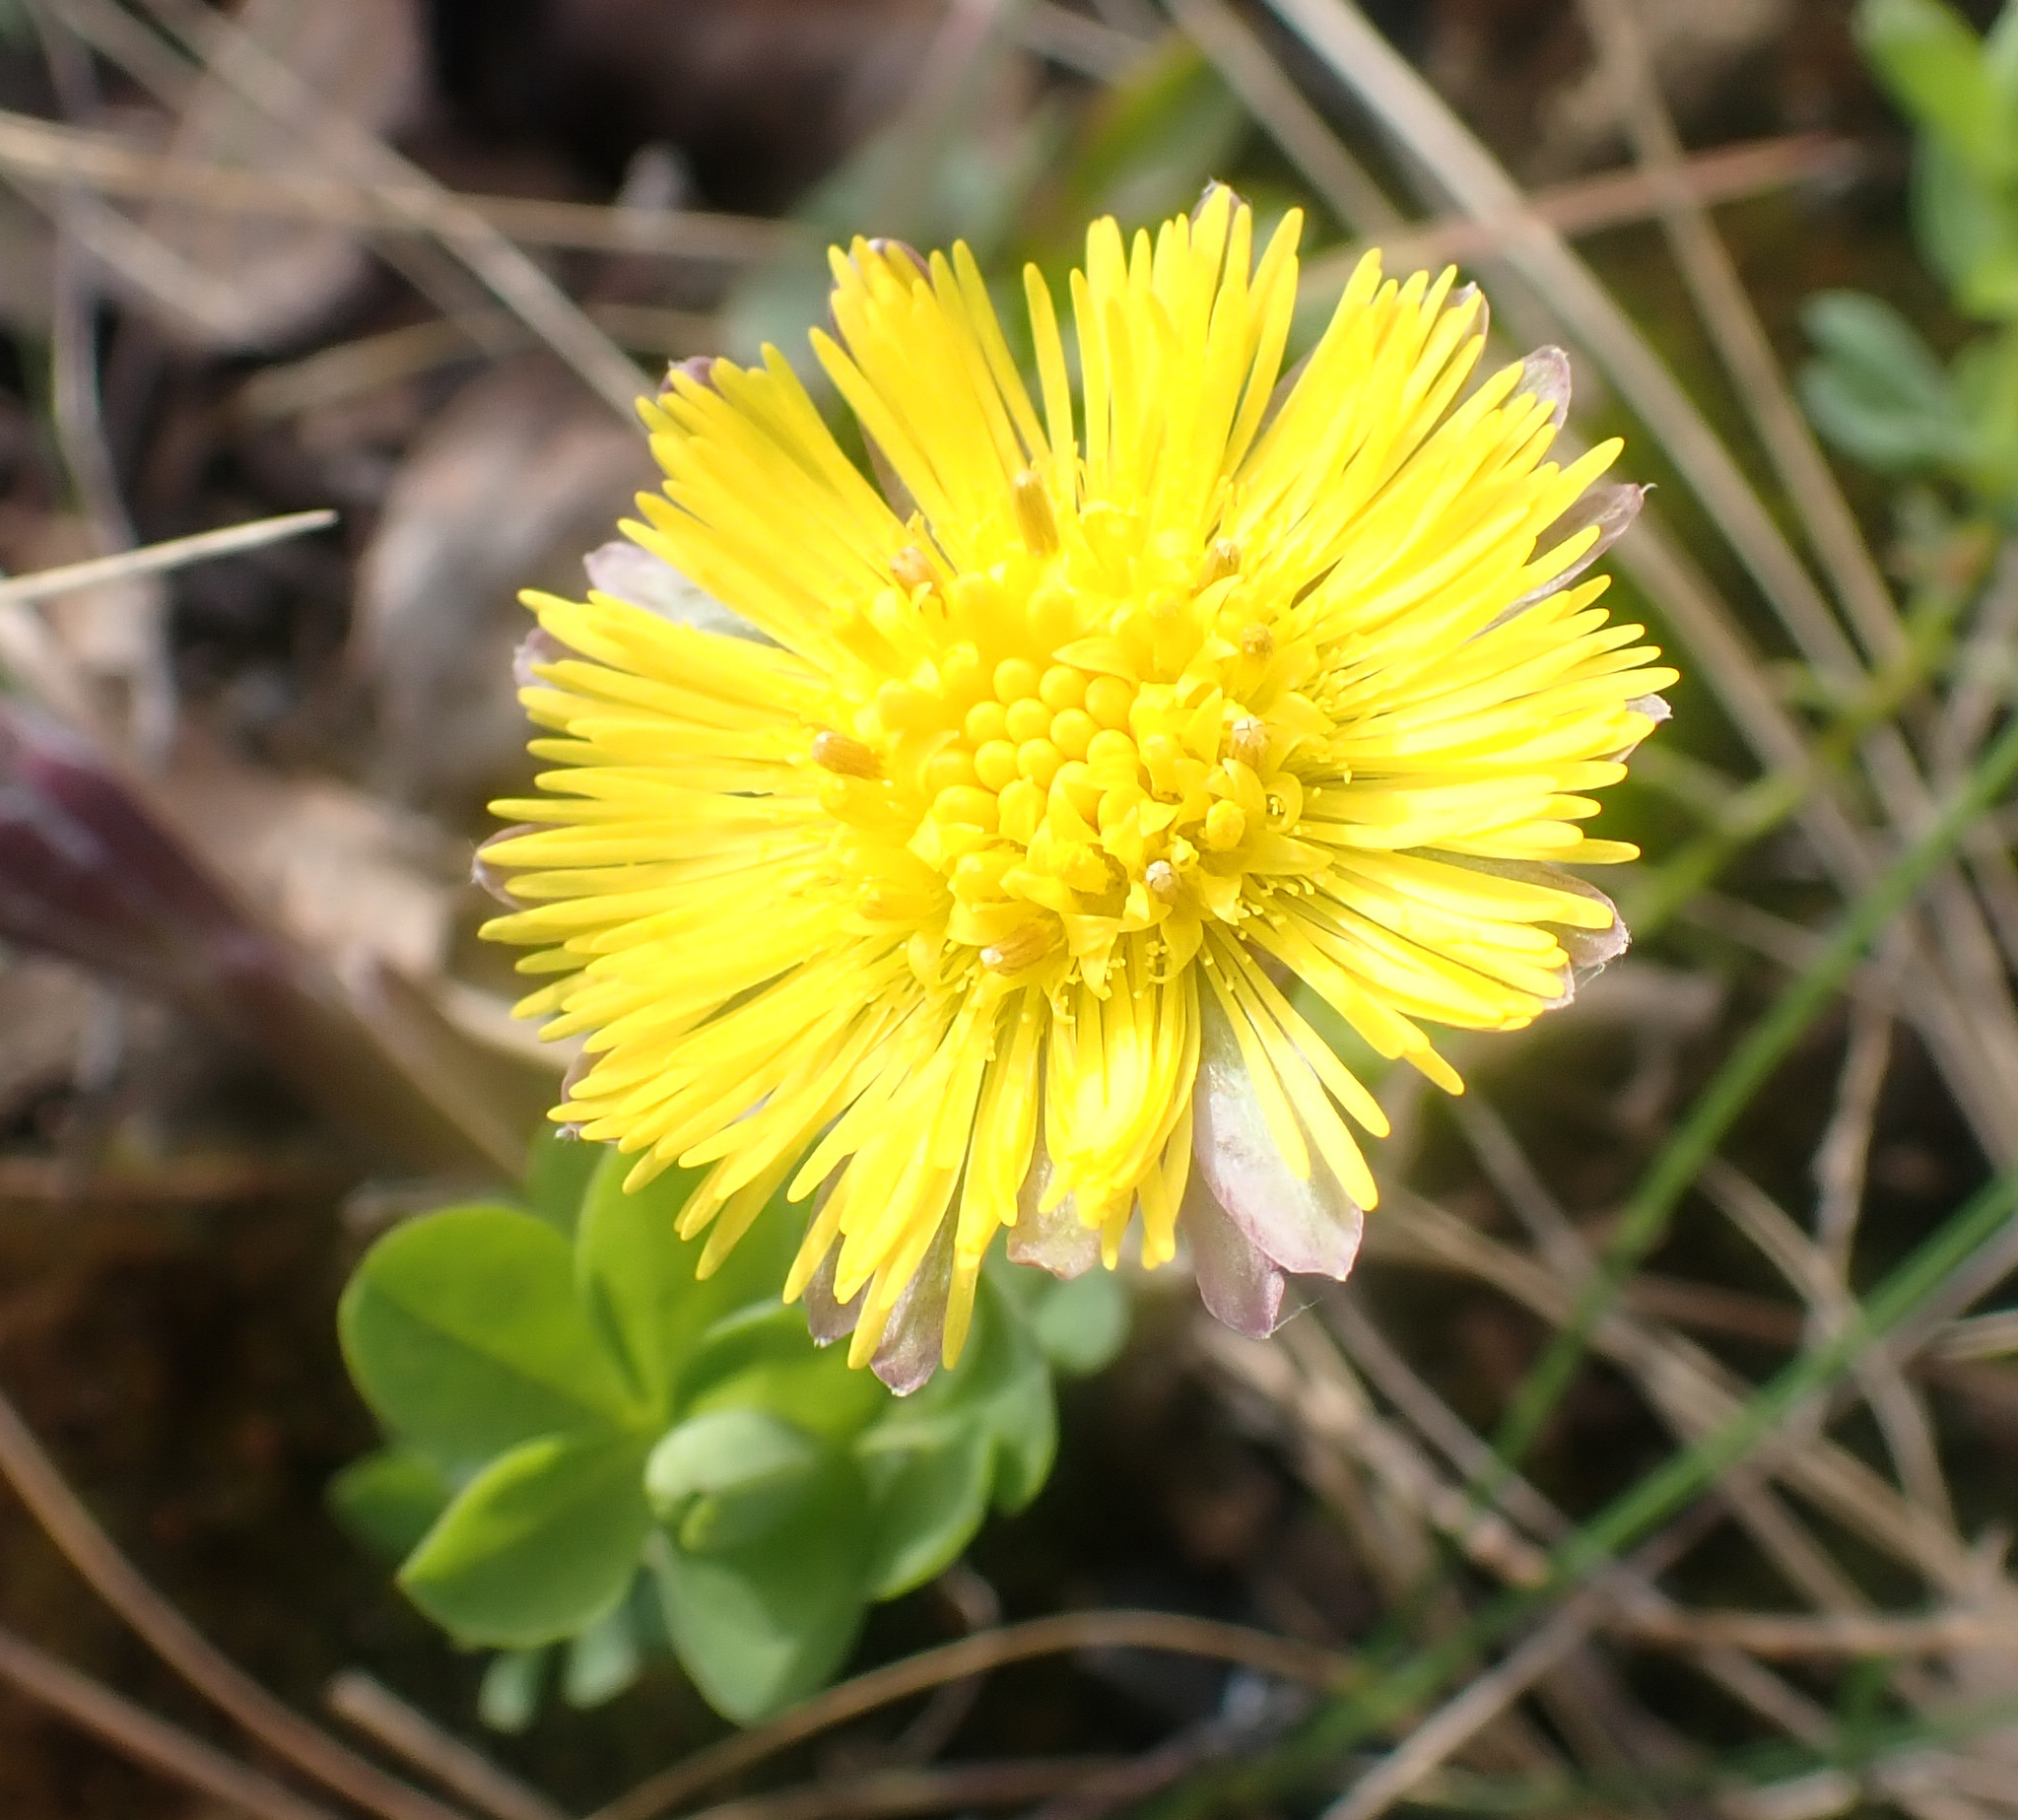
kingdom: Plantae
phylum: Tracheophyta
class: Magnoliopsida
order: Asterales
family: Asteraceae
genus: Tussilago
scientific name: Tussilago farfara
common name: Coltsfoot
